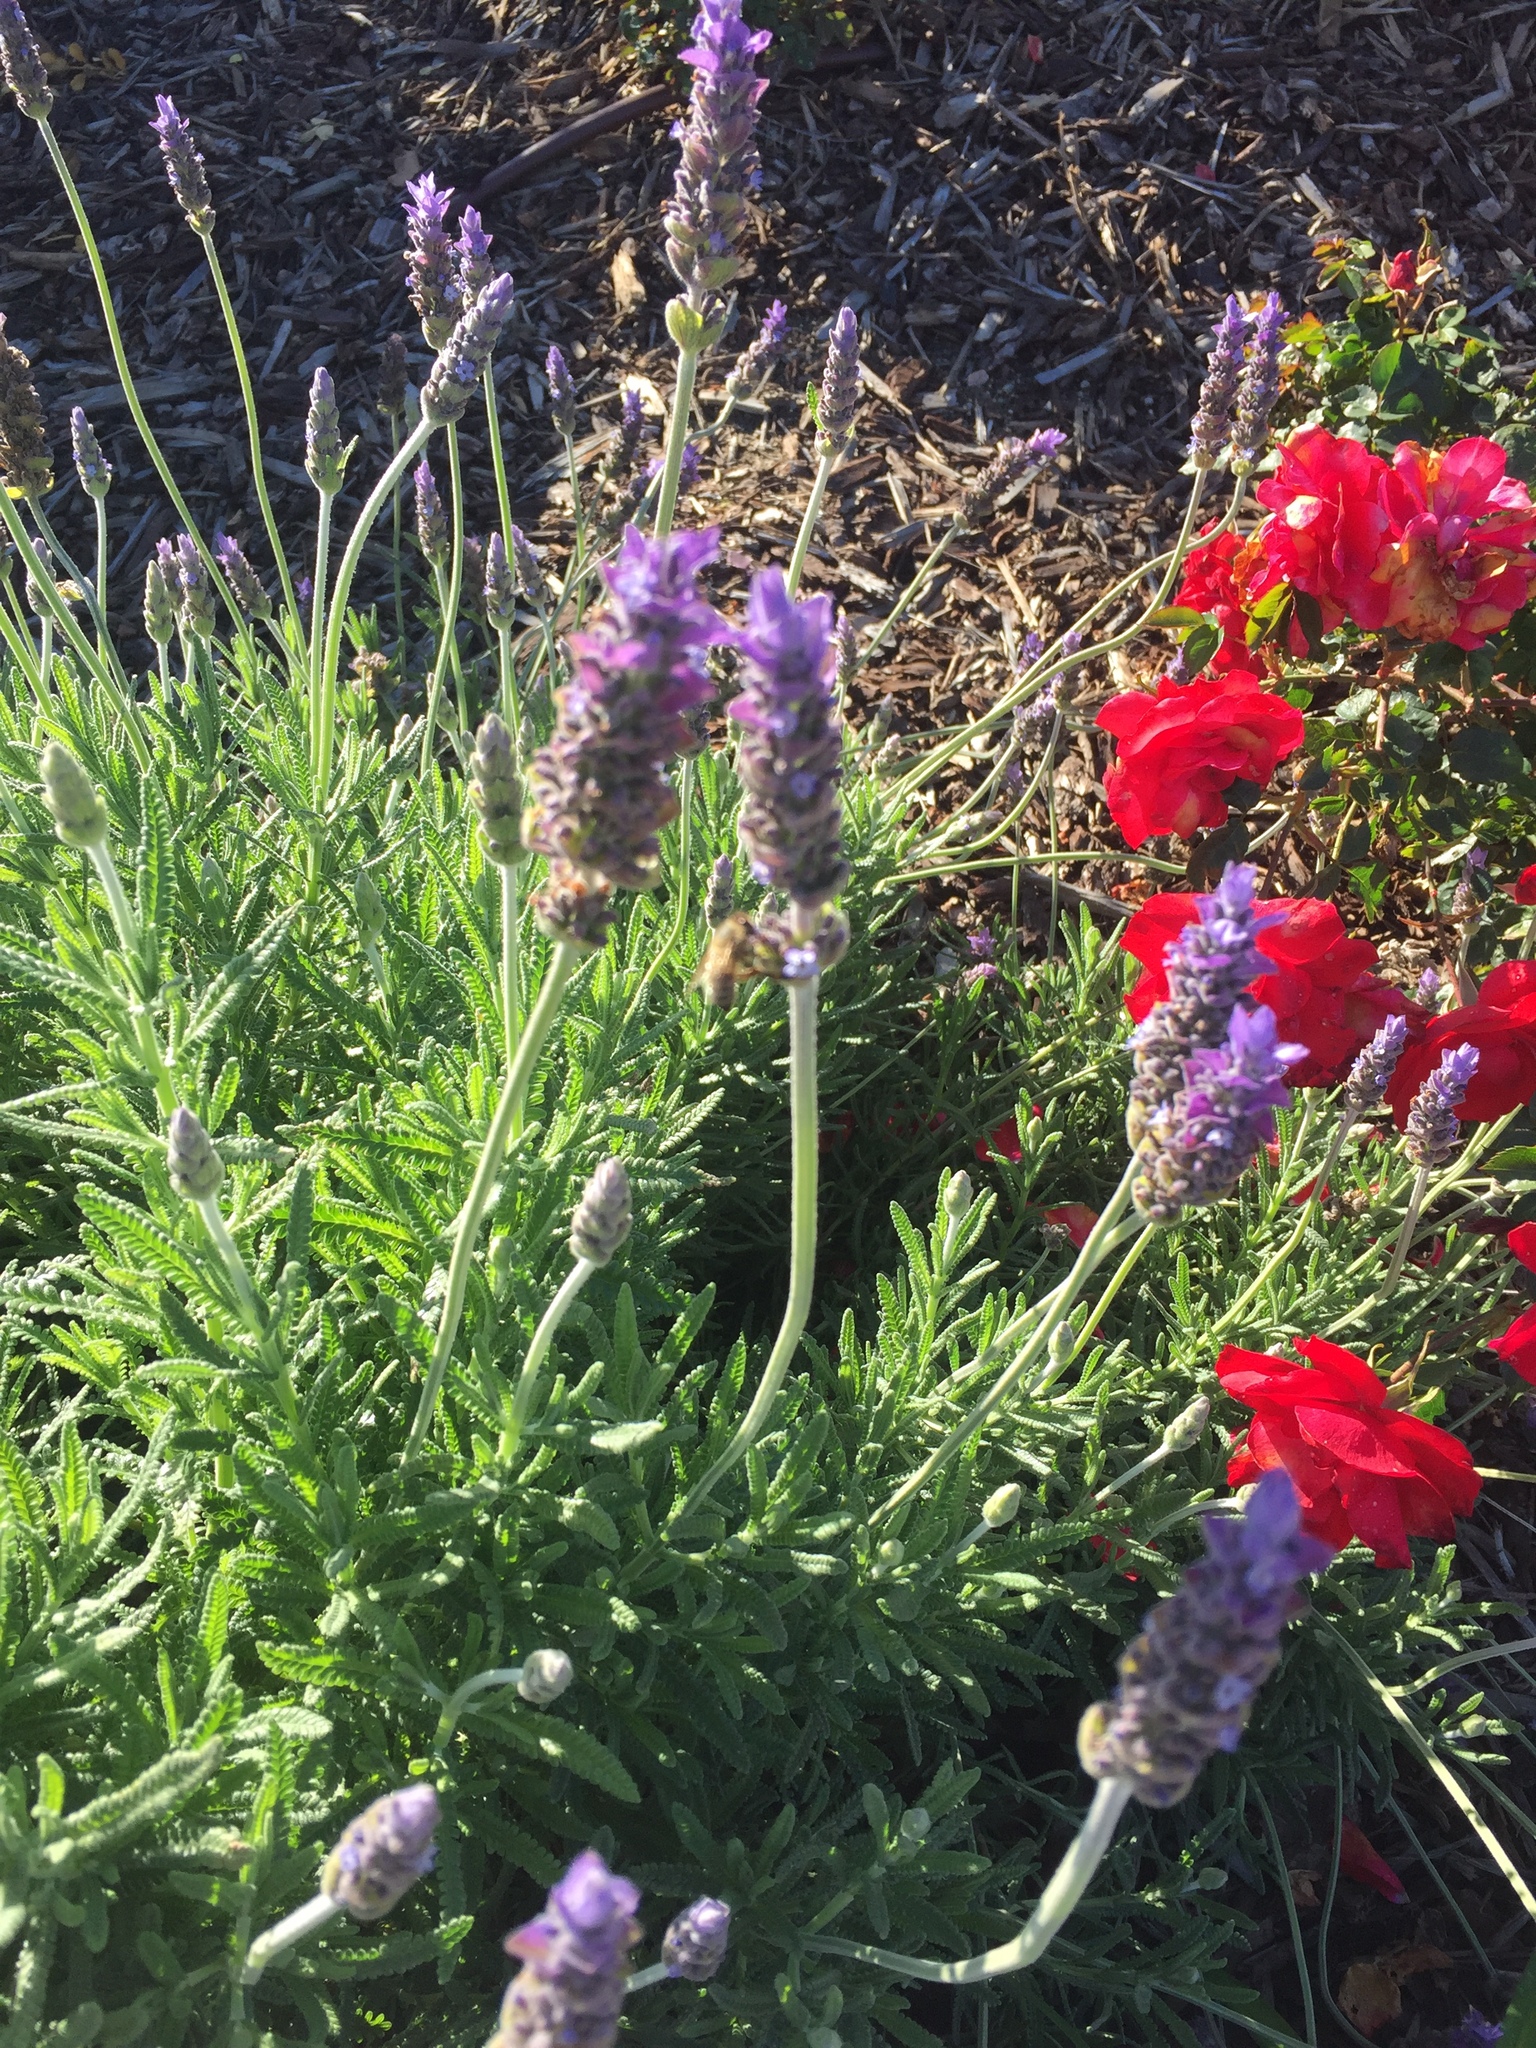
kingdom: Animalia
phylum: Arthropoda
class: Insecta
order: Hymenoptera
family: Apidae
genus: Apis
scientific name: Apis mellifera
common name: Honey bee
